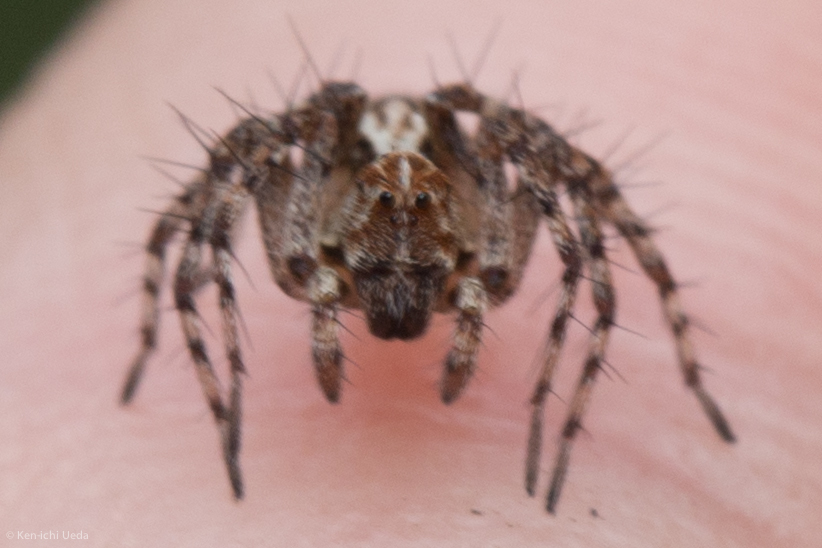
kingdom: Animalia
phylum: Arthropoda
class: Arachnida
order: Araneae
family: Oxyopidae
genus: Oxyopes
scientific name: Oxyopes scalaris
